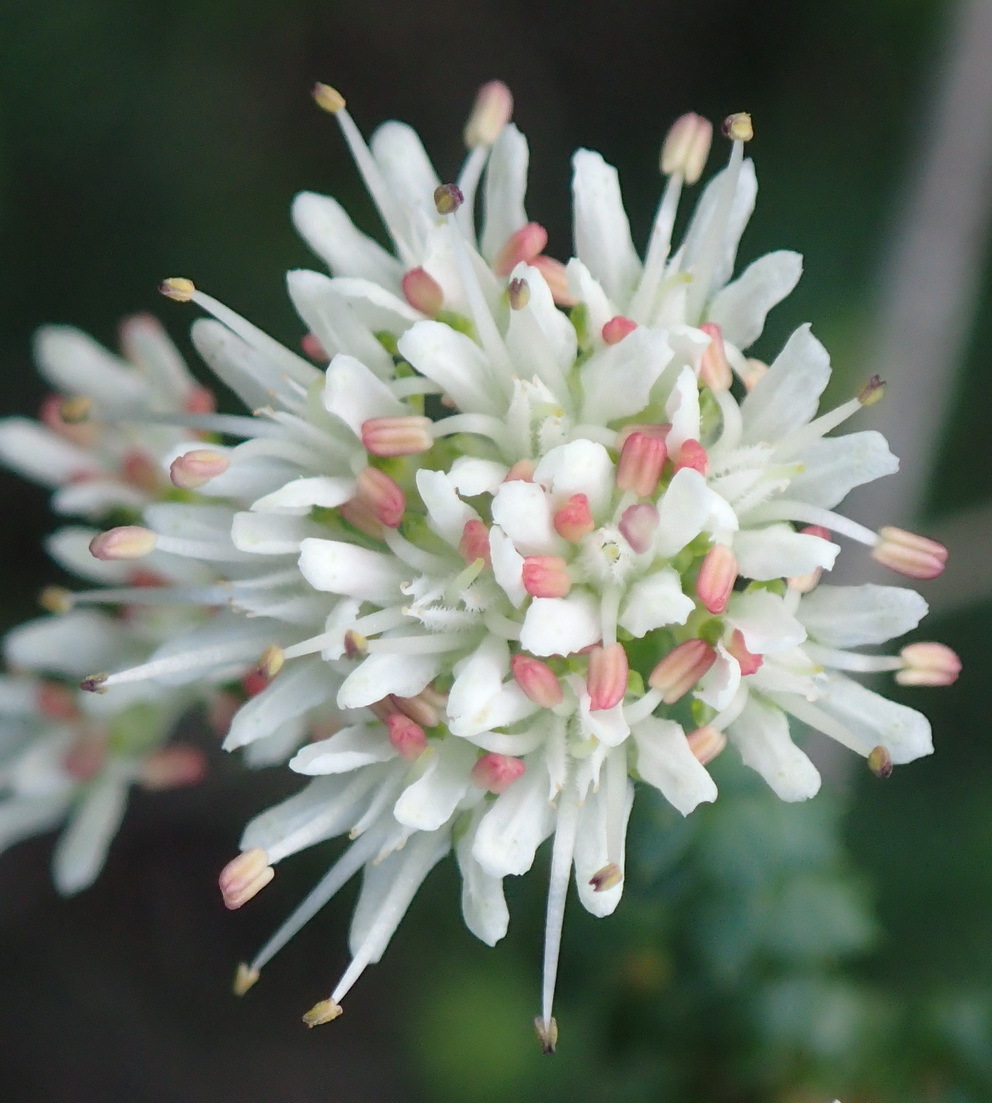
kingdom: Plantae
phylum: Tracheophyta
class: Magnoliopsida
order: Sapindales
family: Rutaceae
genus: Agathosma
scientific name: Agathosma apiculata
